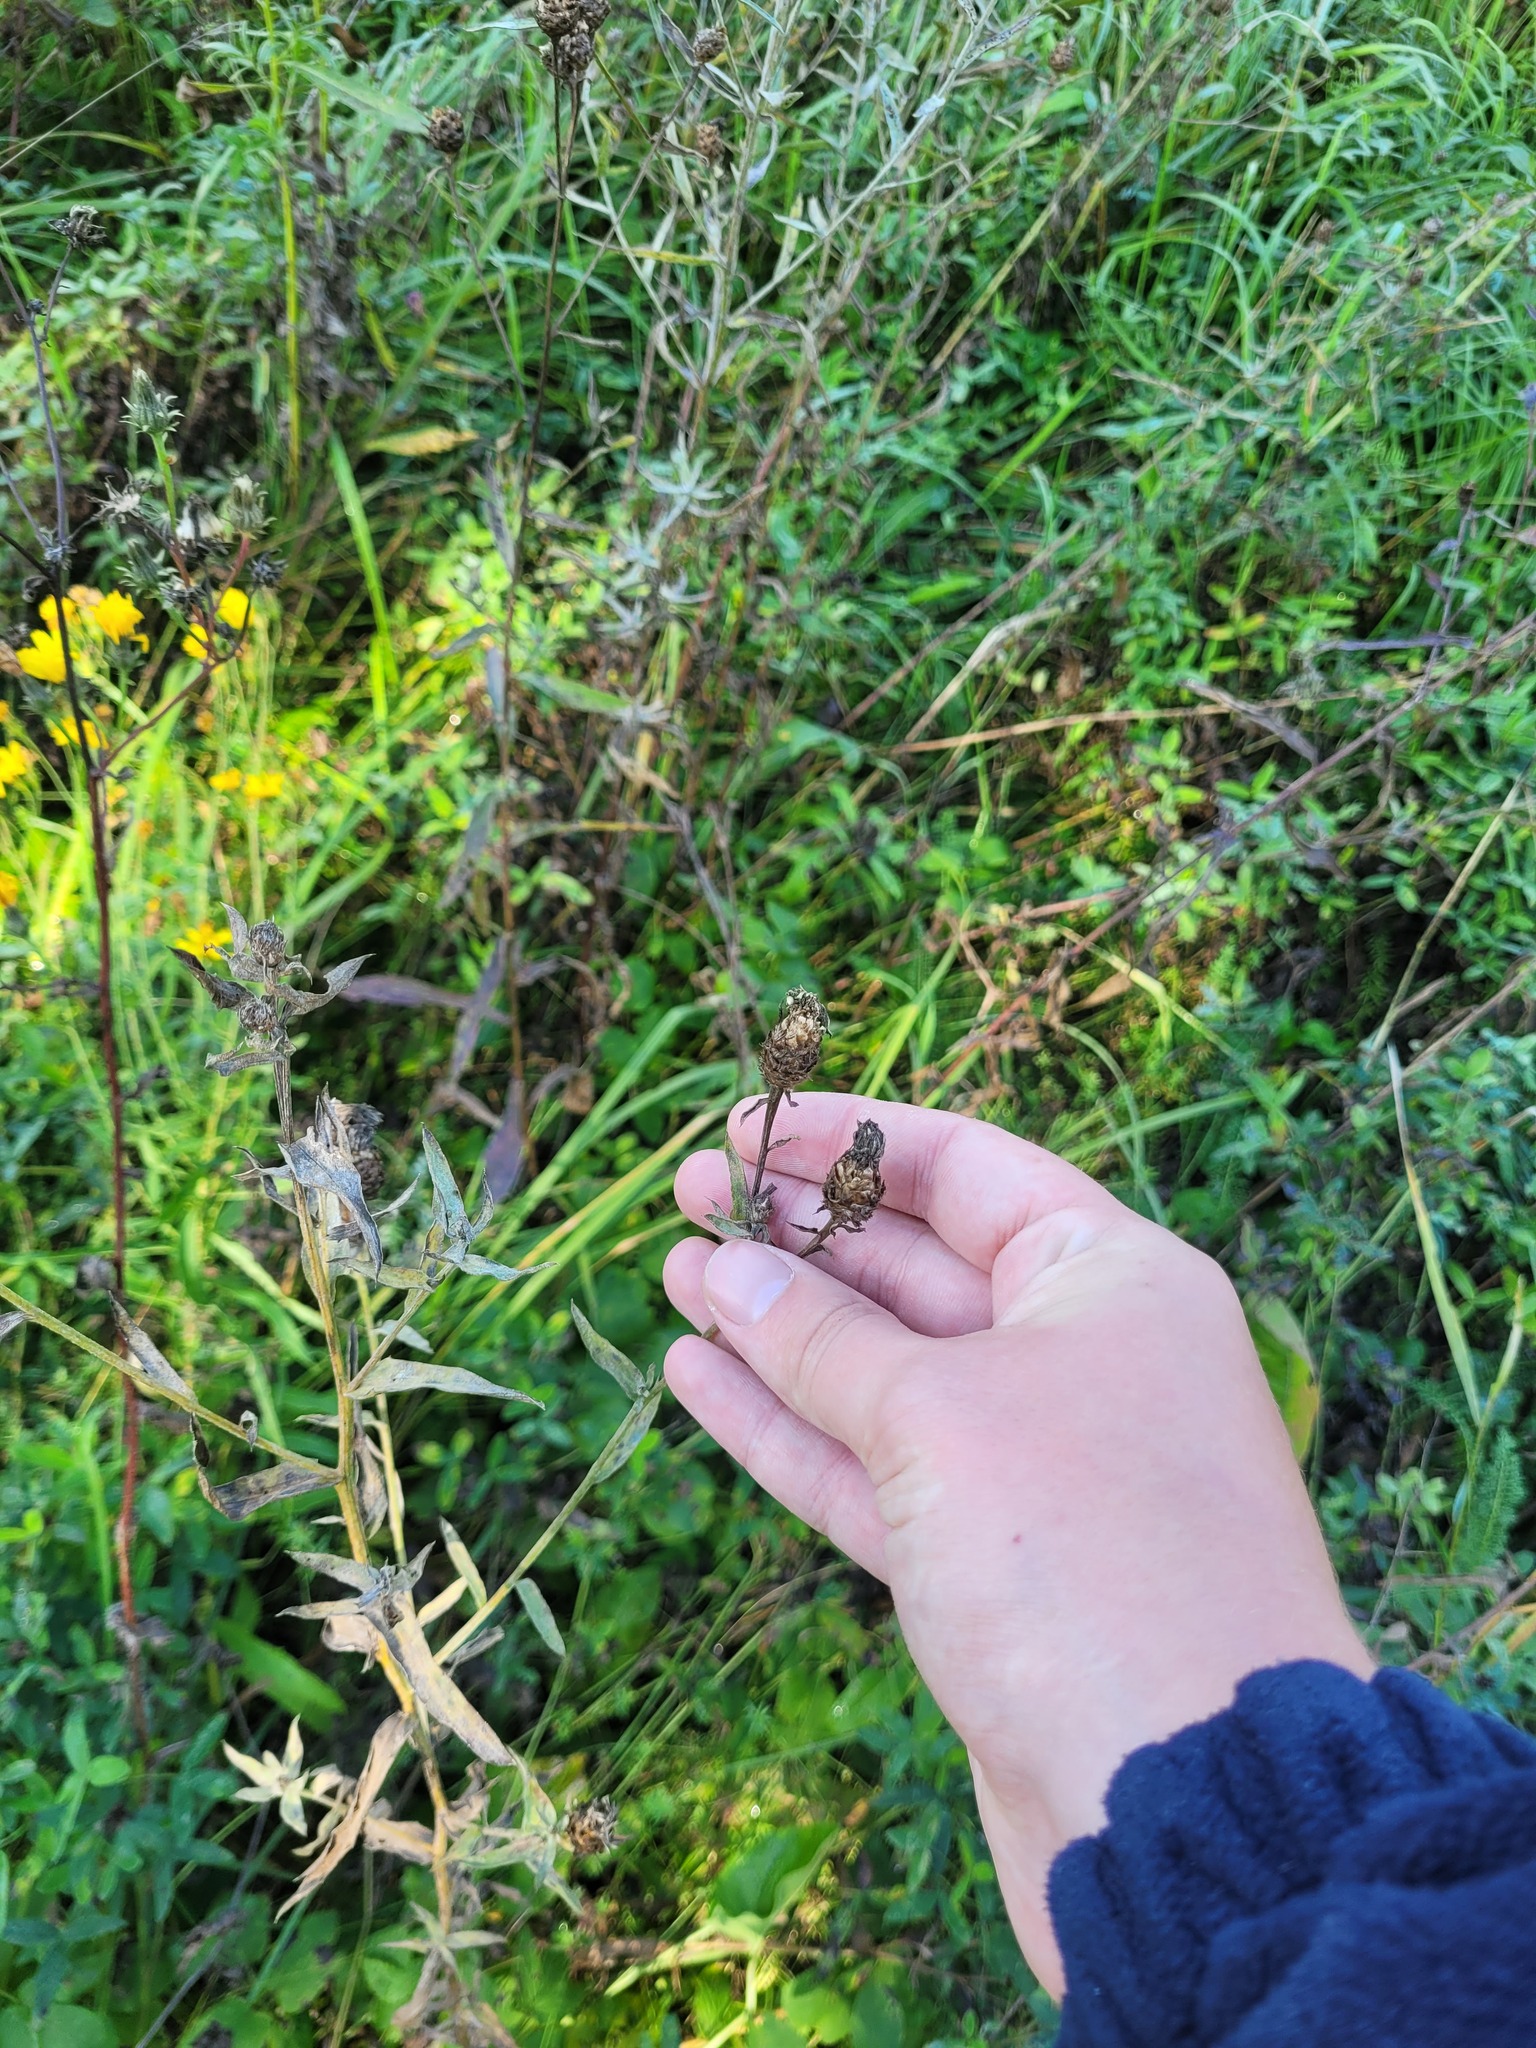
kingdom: Plantae
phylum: Tracheophyta
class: Magnoliopsida
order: Asterales
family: Asteraceae
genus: Centaurea
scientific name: Centaurea jacea
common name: Brown knapweed
